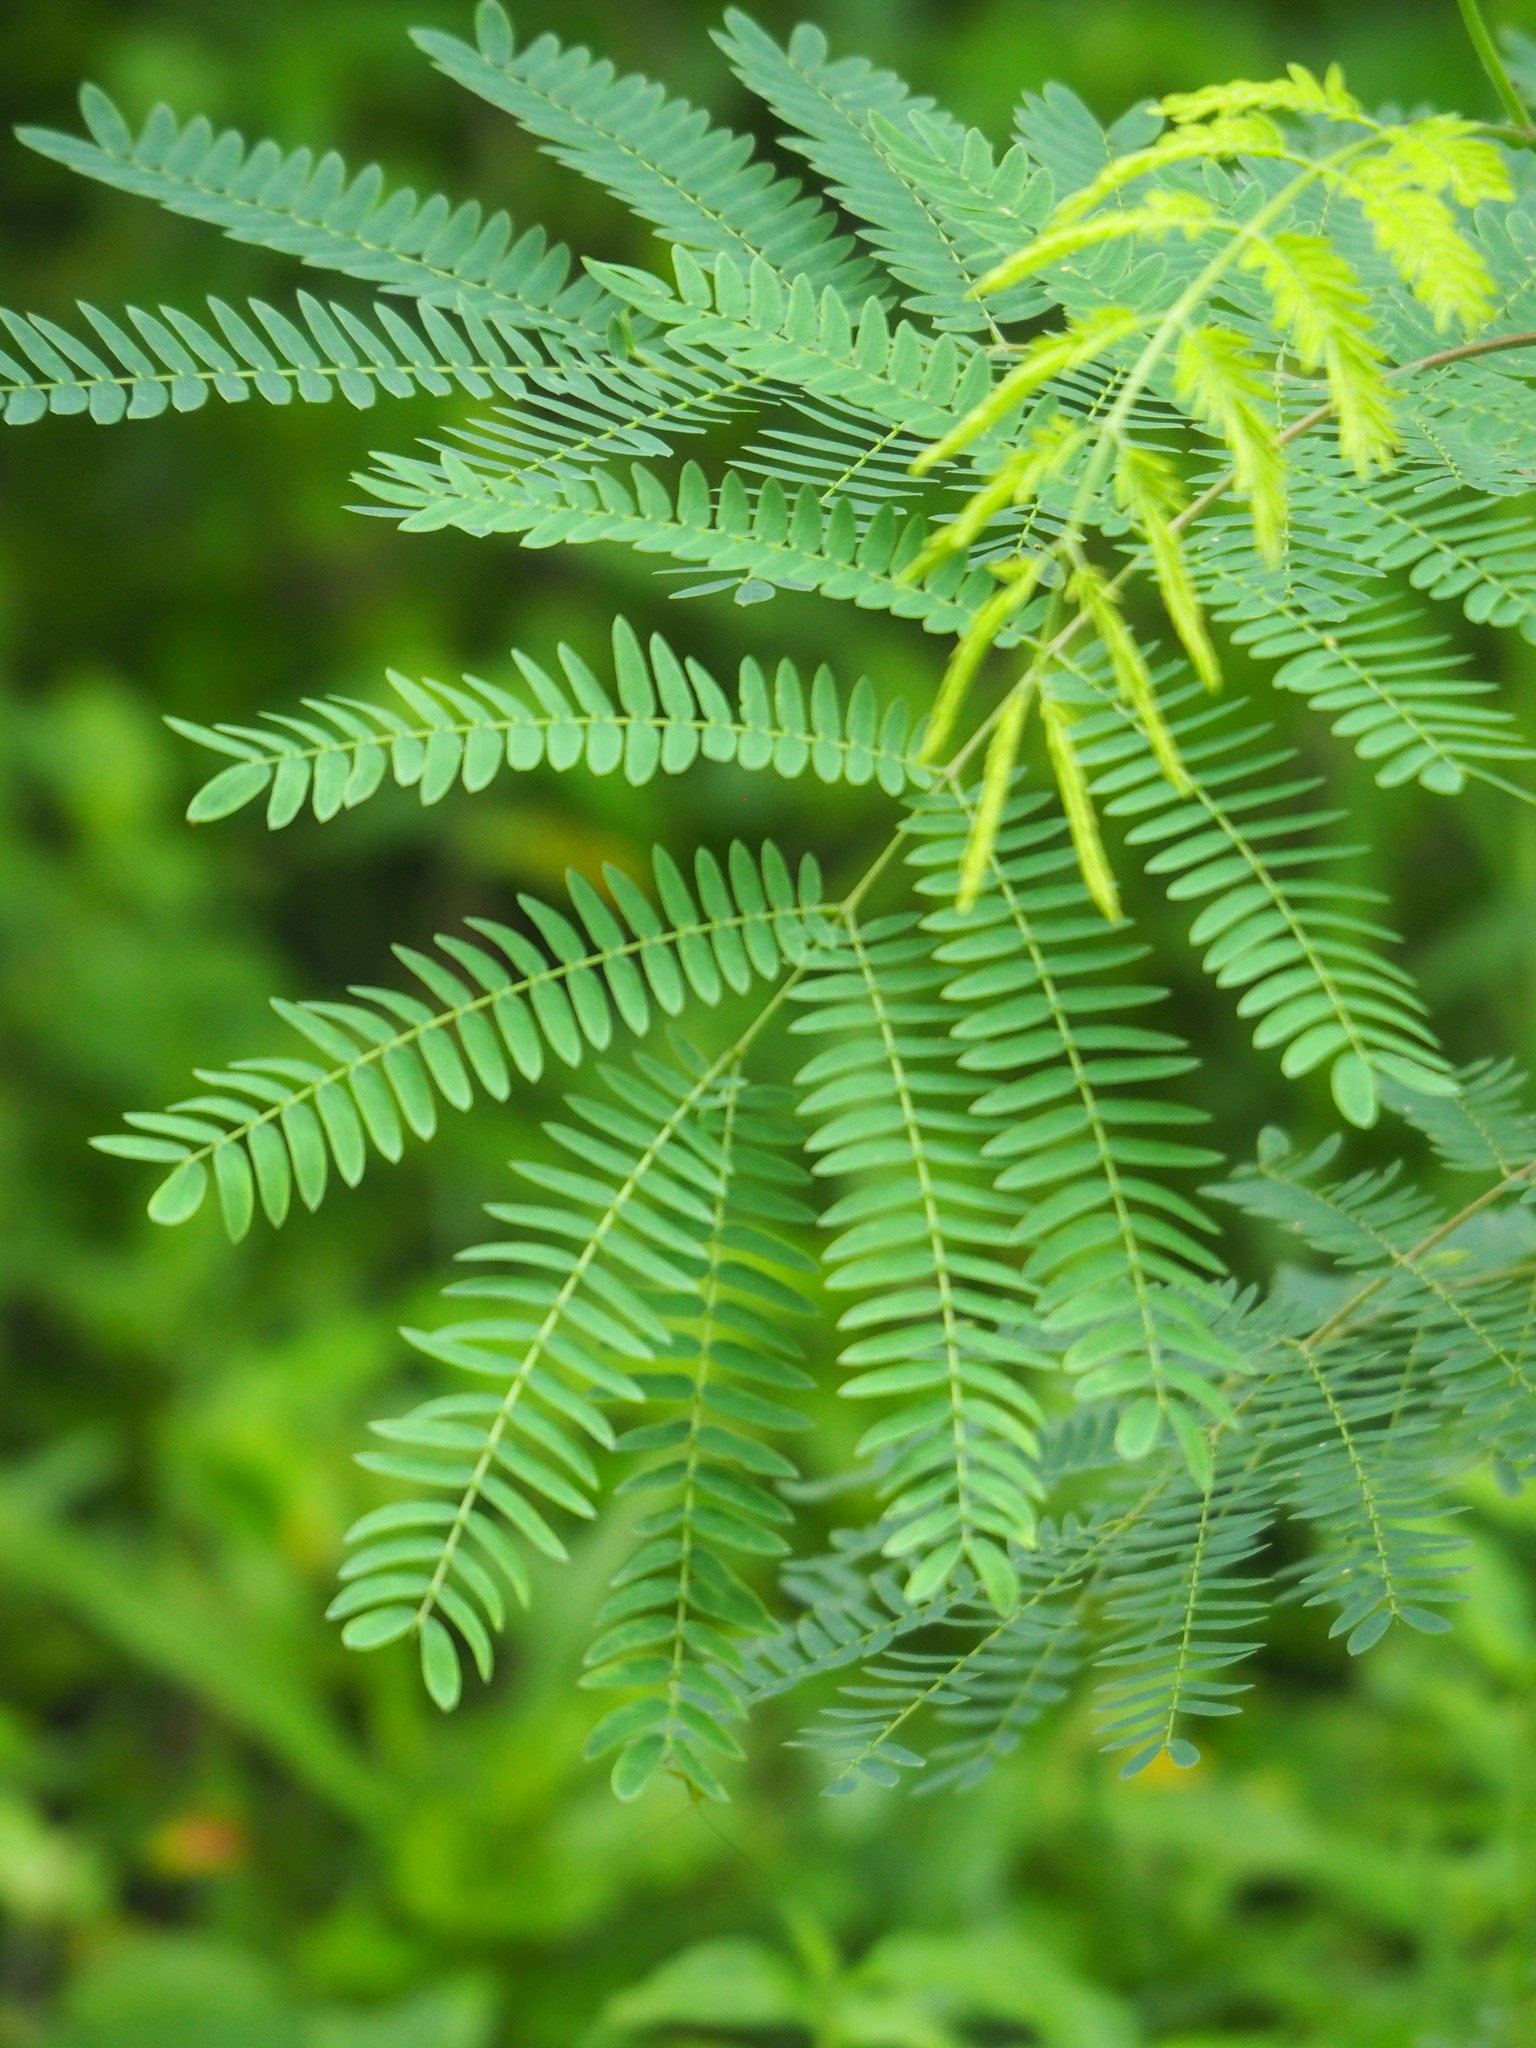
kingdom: Plantae
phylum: Tracheophyta
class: Magnoliopsida
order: Fabales
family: Fabaceae
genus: Leucaena
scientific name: Leucaena leucocephala
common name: White leadtree
